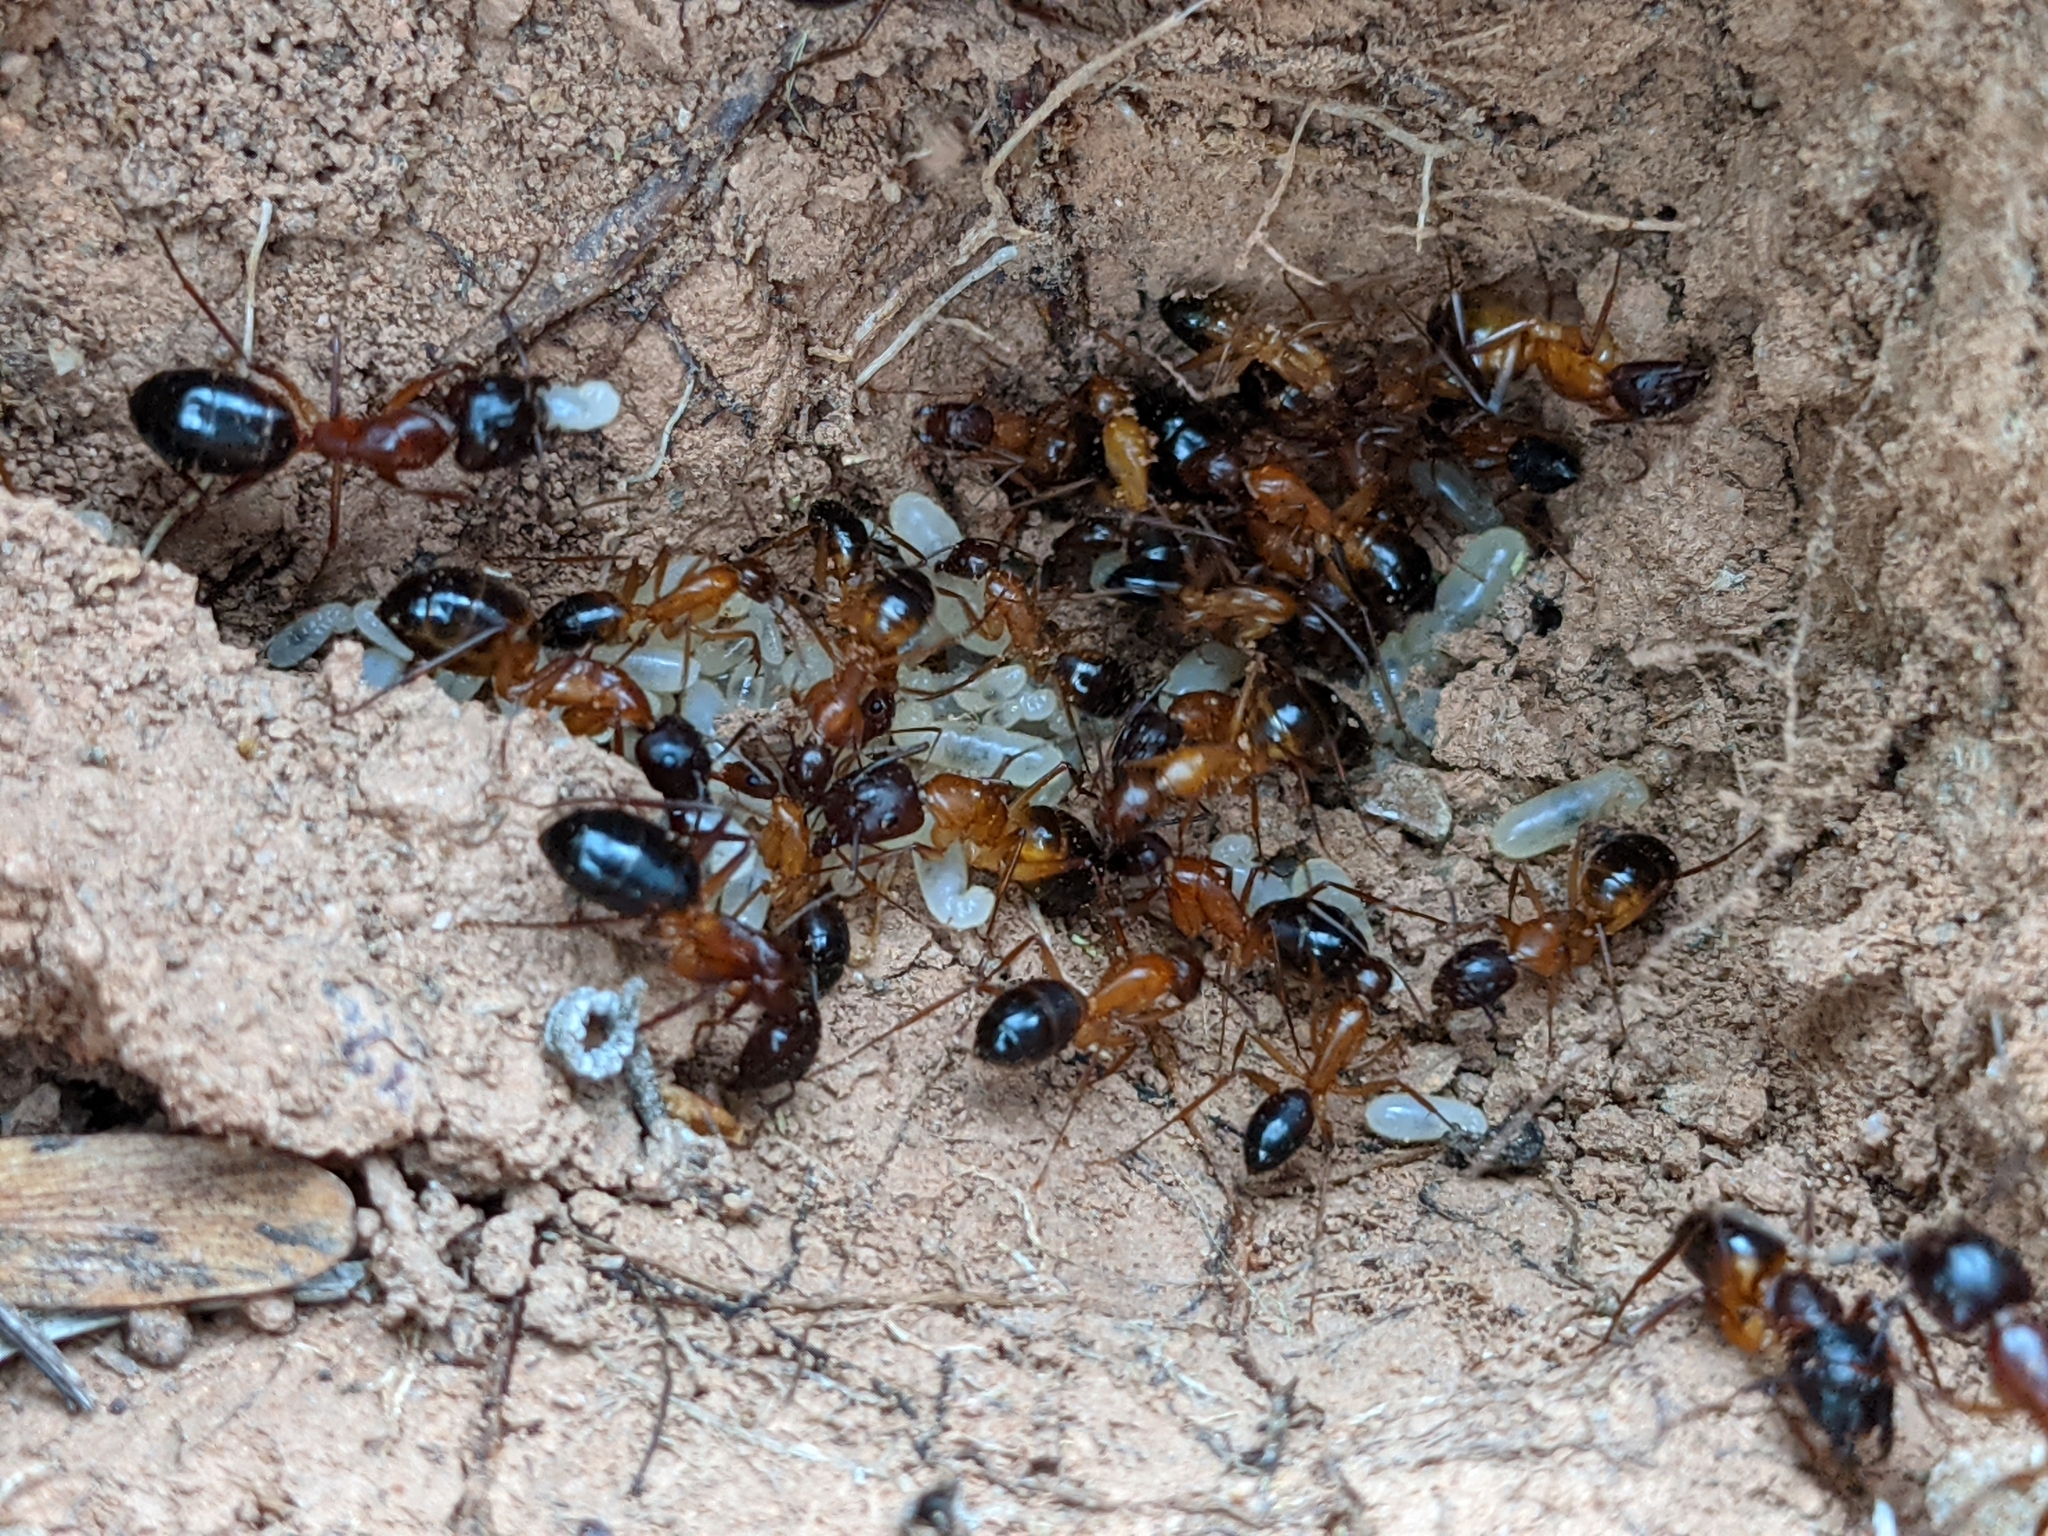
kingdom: Animalia
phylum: Arthropoda
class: Insecta
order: Hymenoptera
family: Formicidae
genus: Camponotus
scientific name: Camponotus pilicornis
